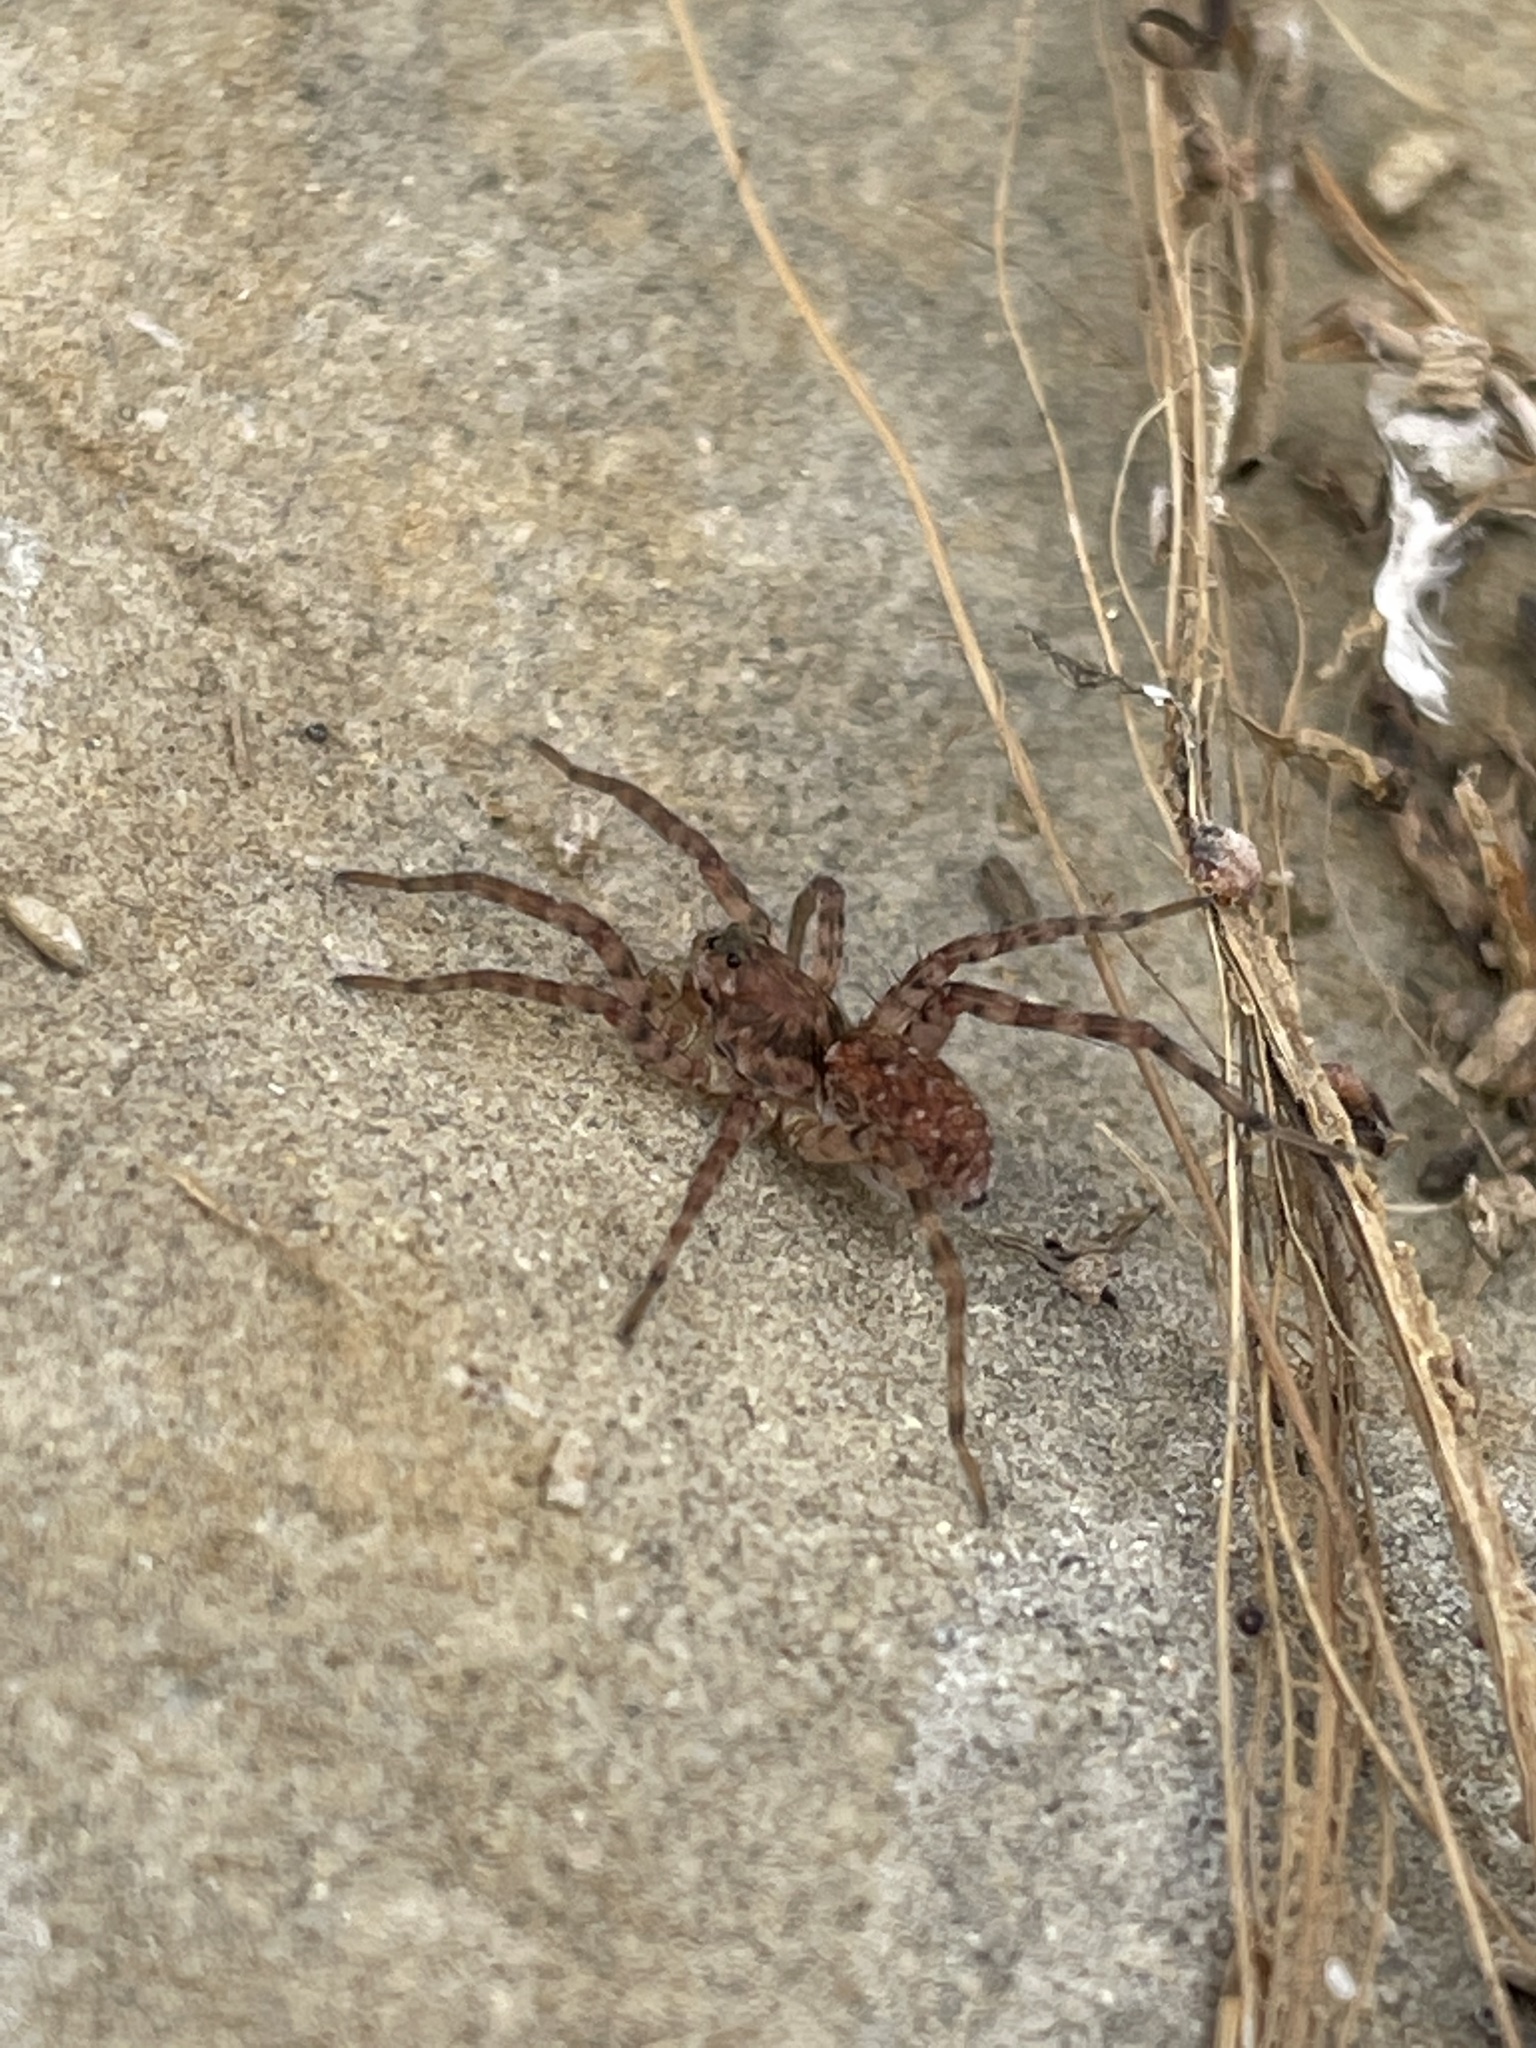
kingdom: Animalia
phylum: Arthropoda
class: Arachnida
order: Araneae
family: Lycosidae
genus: Arctosa
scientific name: Arctosa littoralis
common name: Wolf spiders
